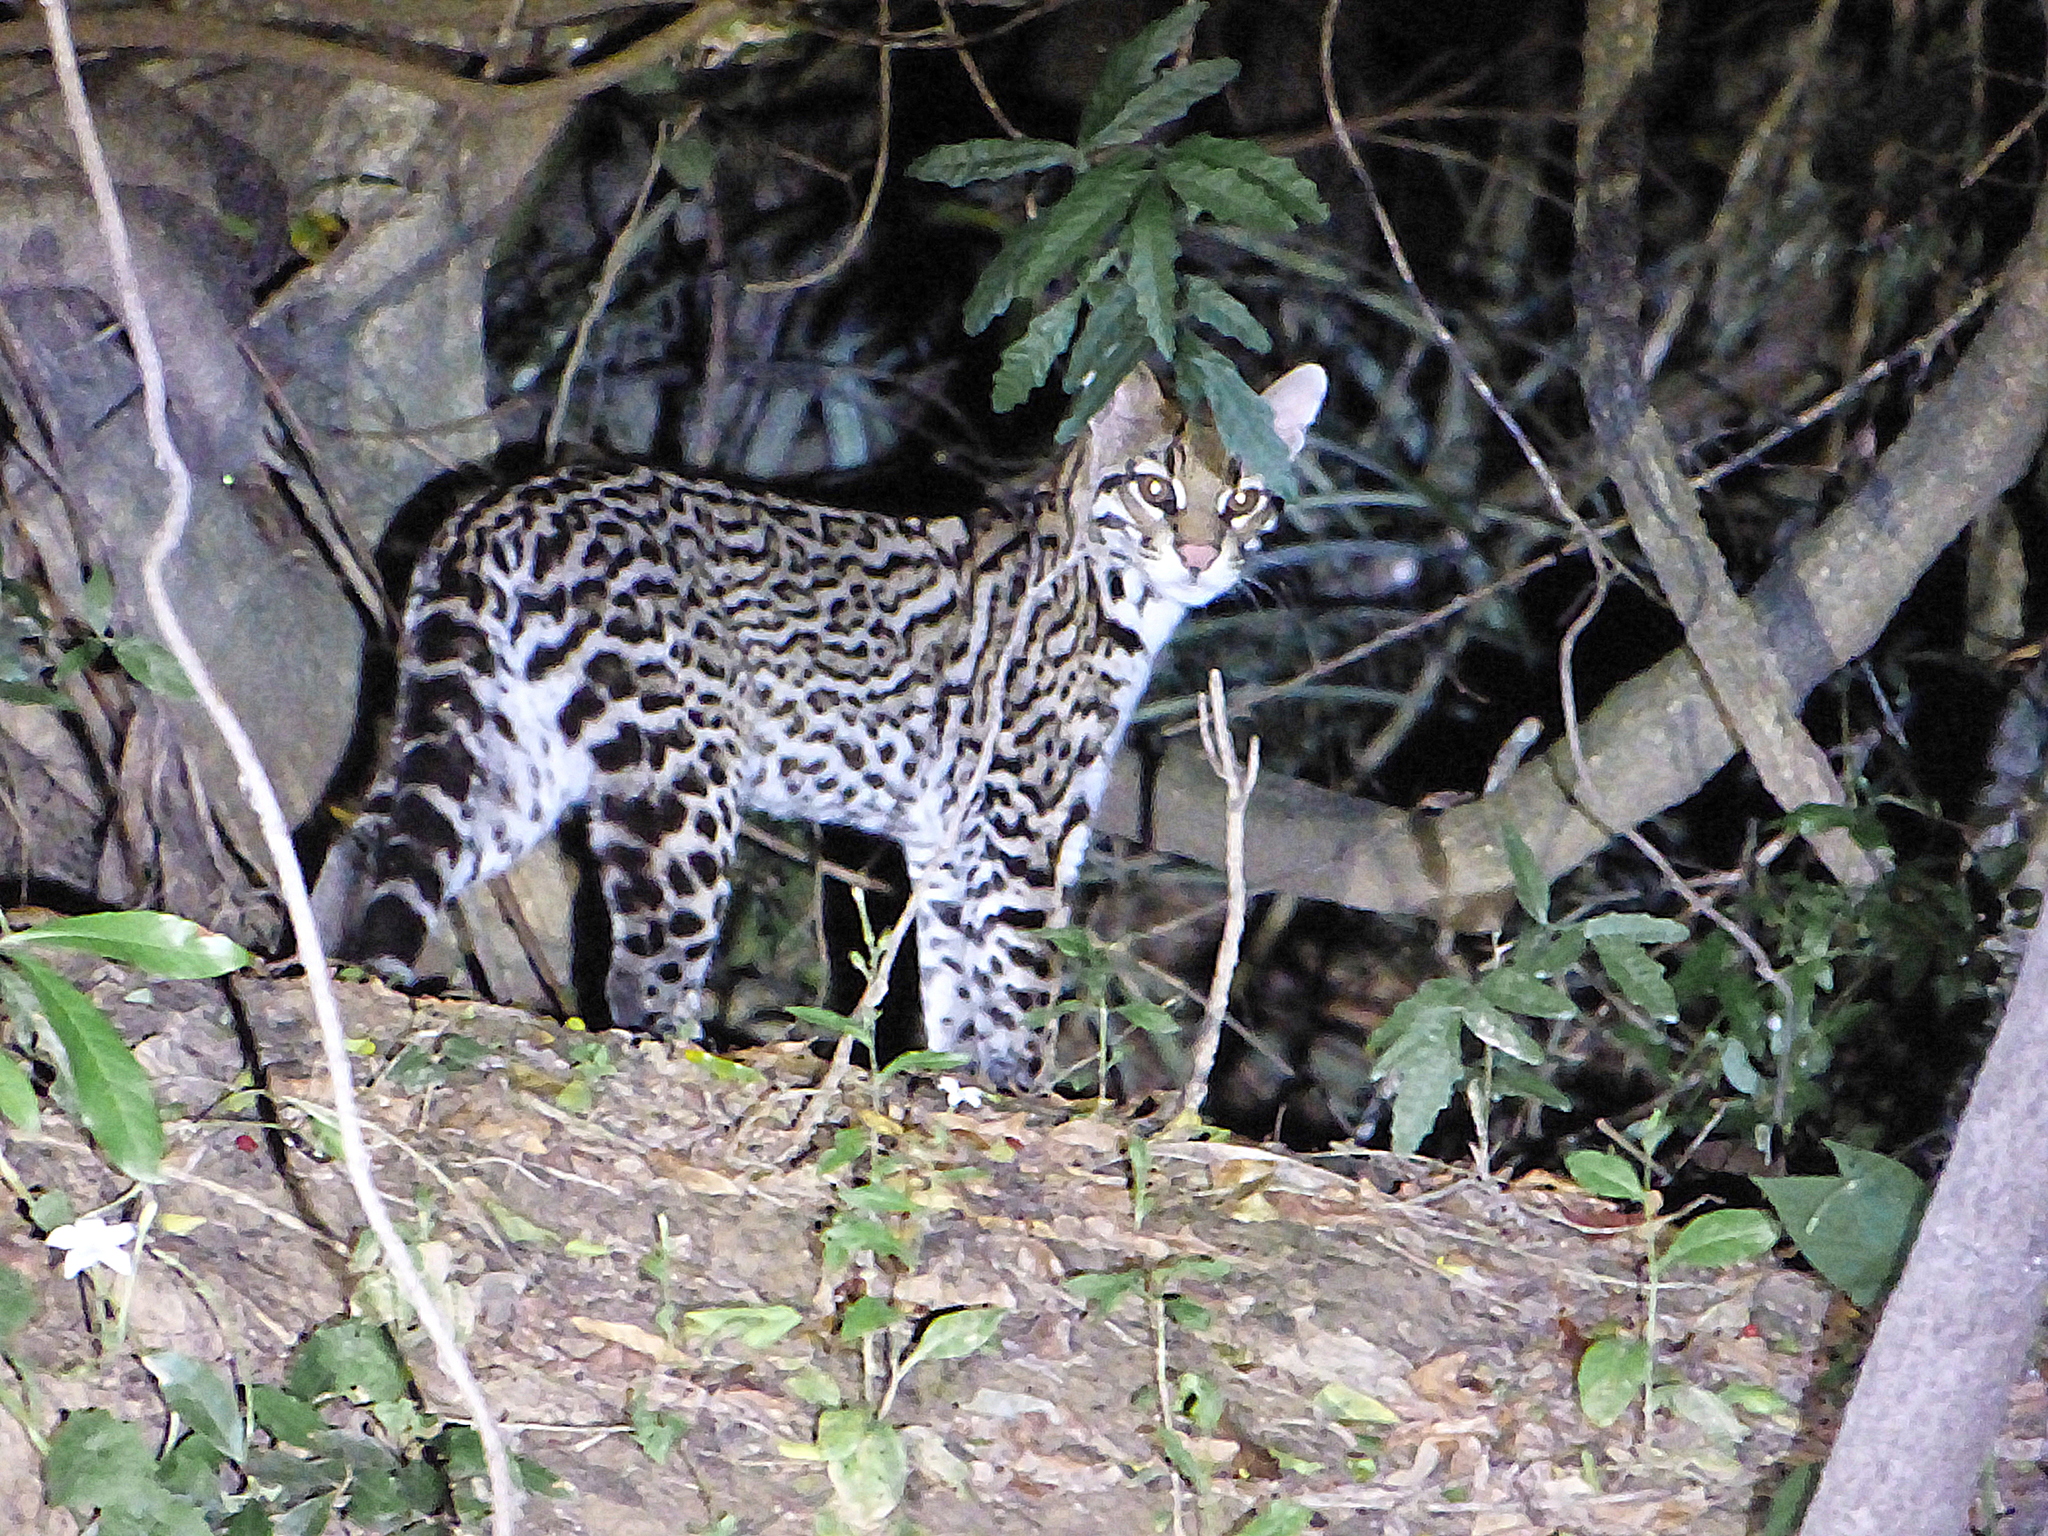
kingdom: Animalia
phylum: Chordata
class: Mammalia
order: Carnivora
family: Felidae
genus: Leopardus
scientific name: Leopardus pardalis
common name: Ocelot
